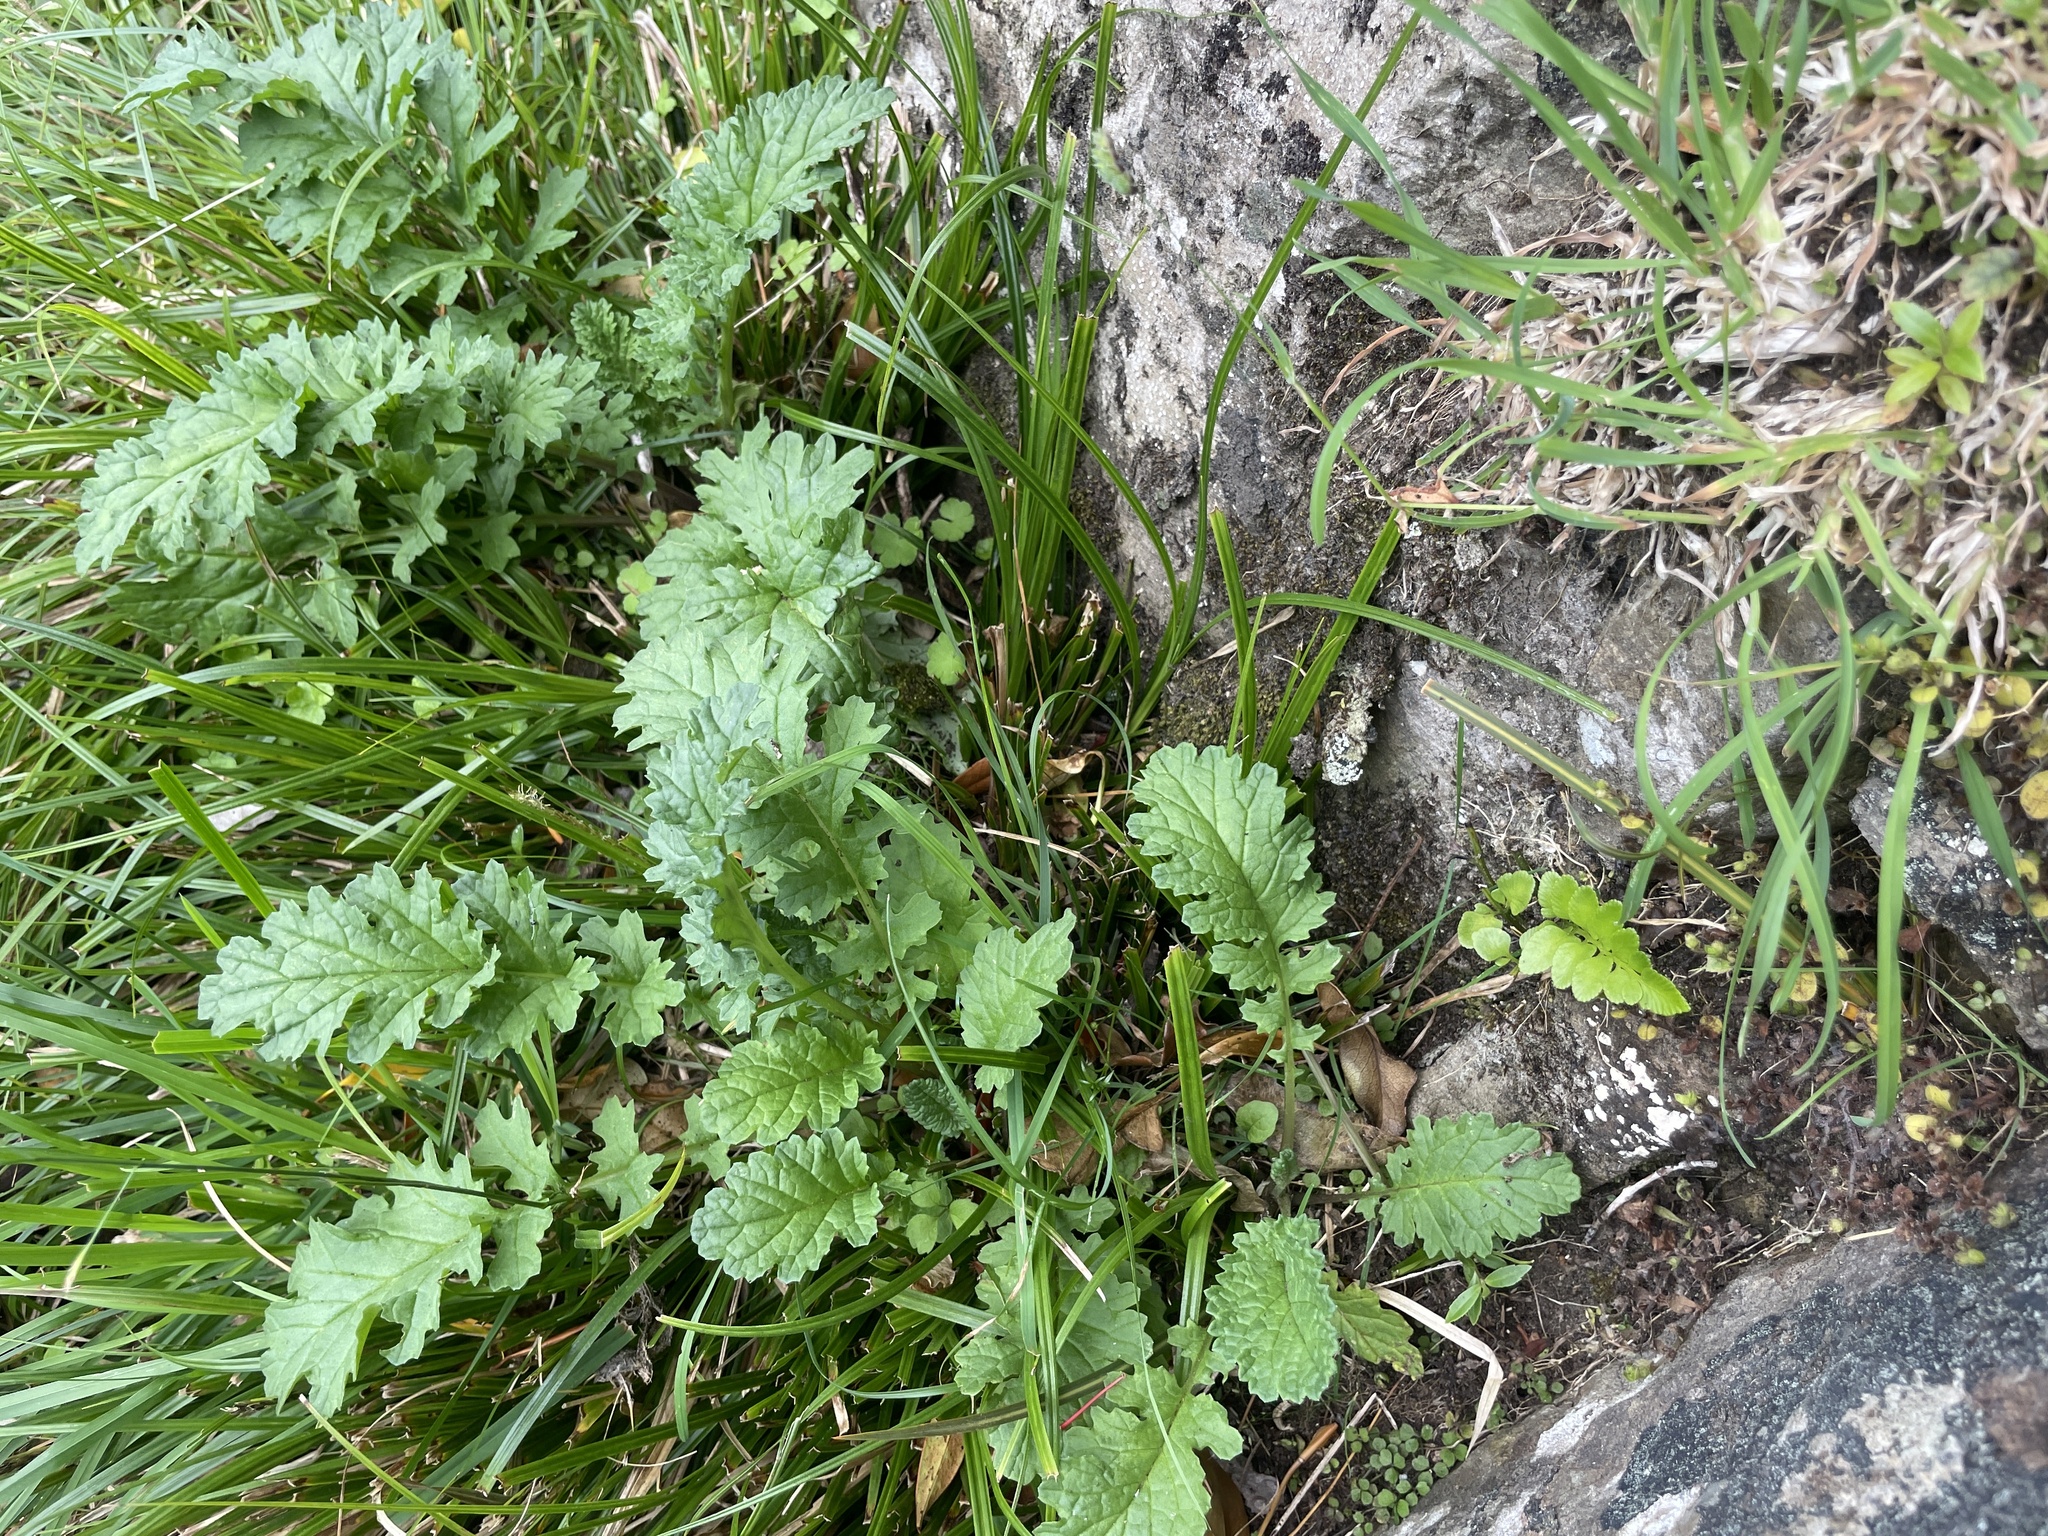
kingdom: Plantae
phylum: Tracheophyta
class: Magnoliopsida
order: Asterales
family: Asteraceae
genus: Jacobaea
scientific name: Jacobaea vulgaris
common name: Stinking willie
